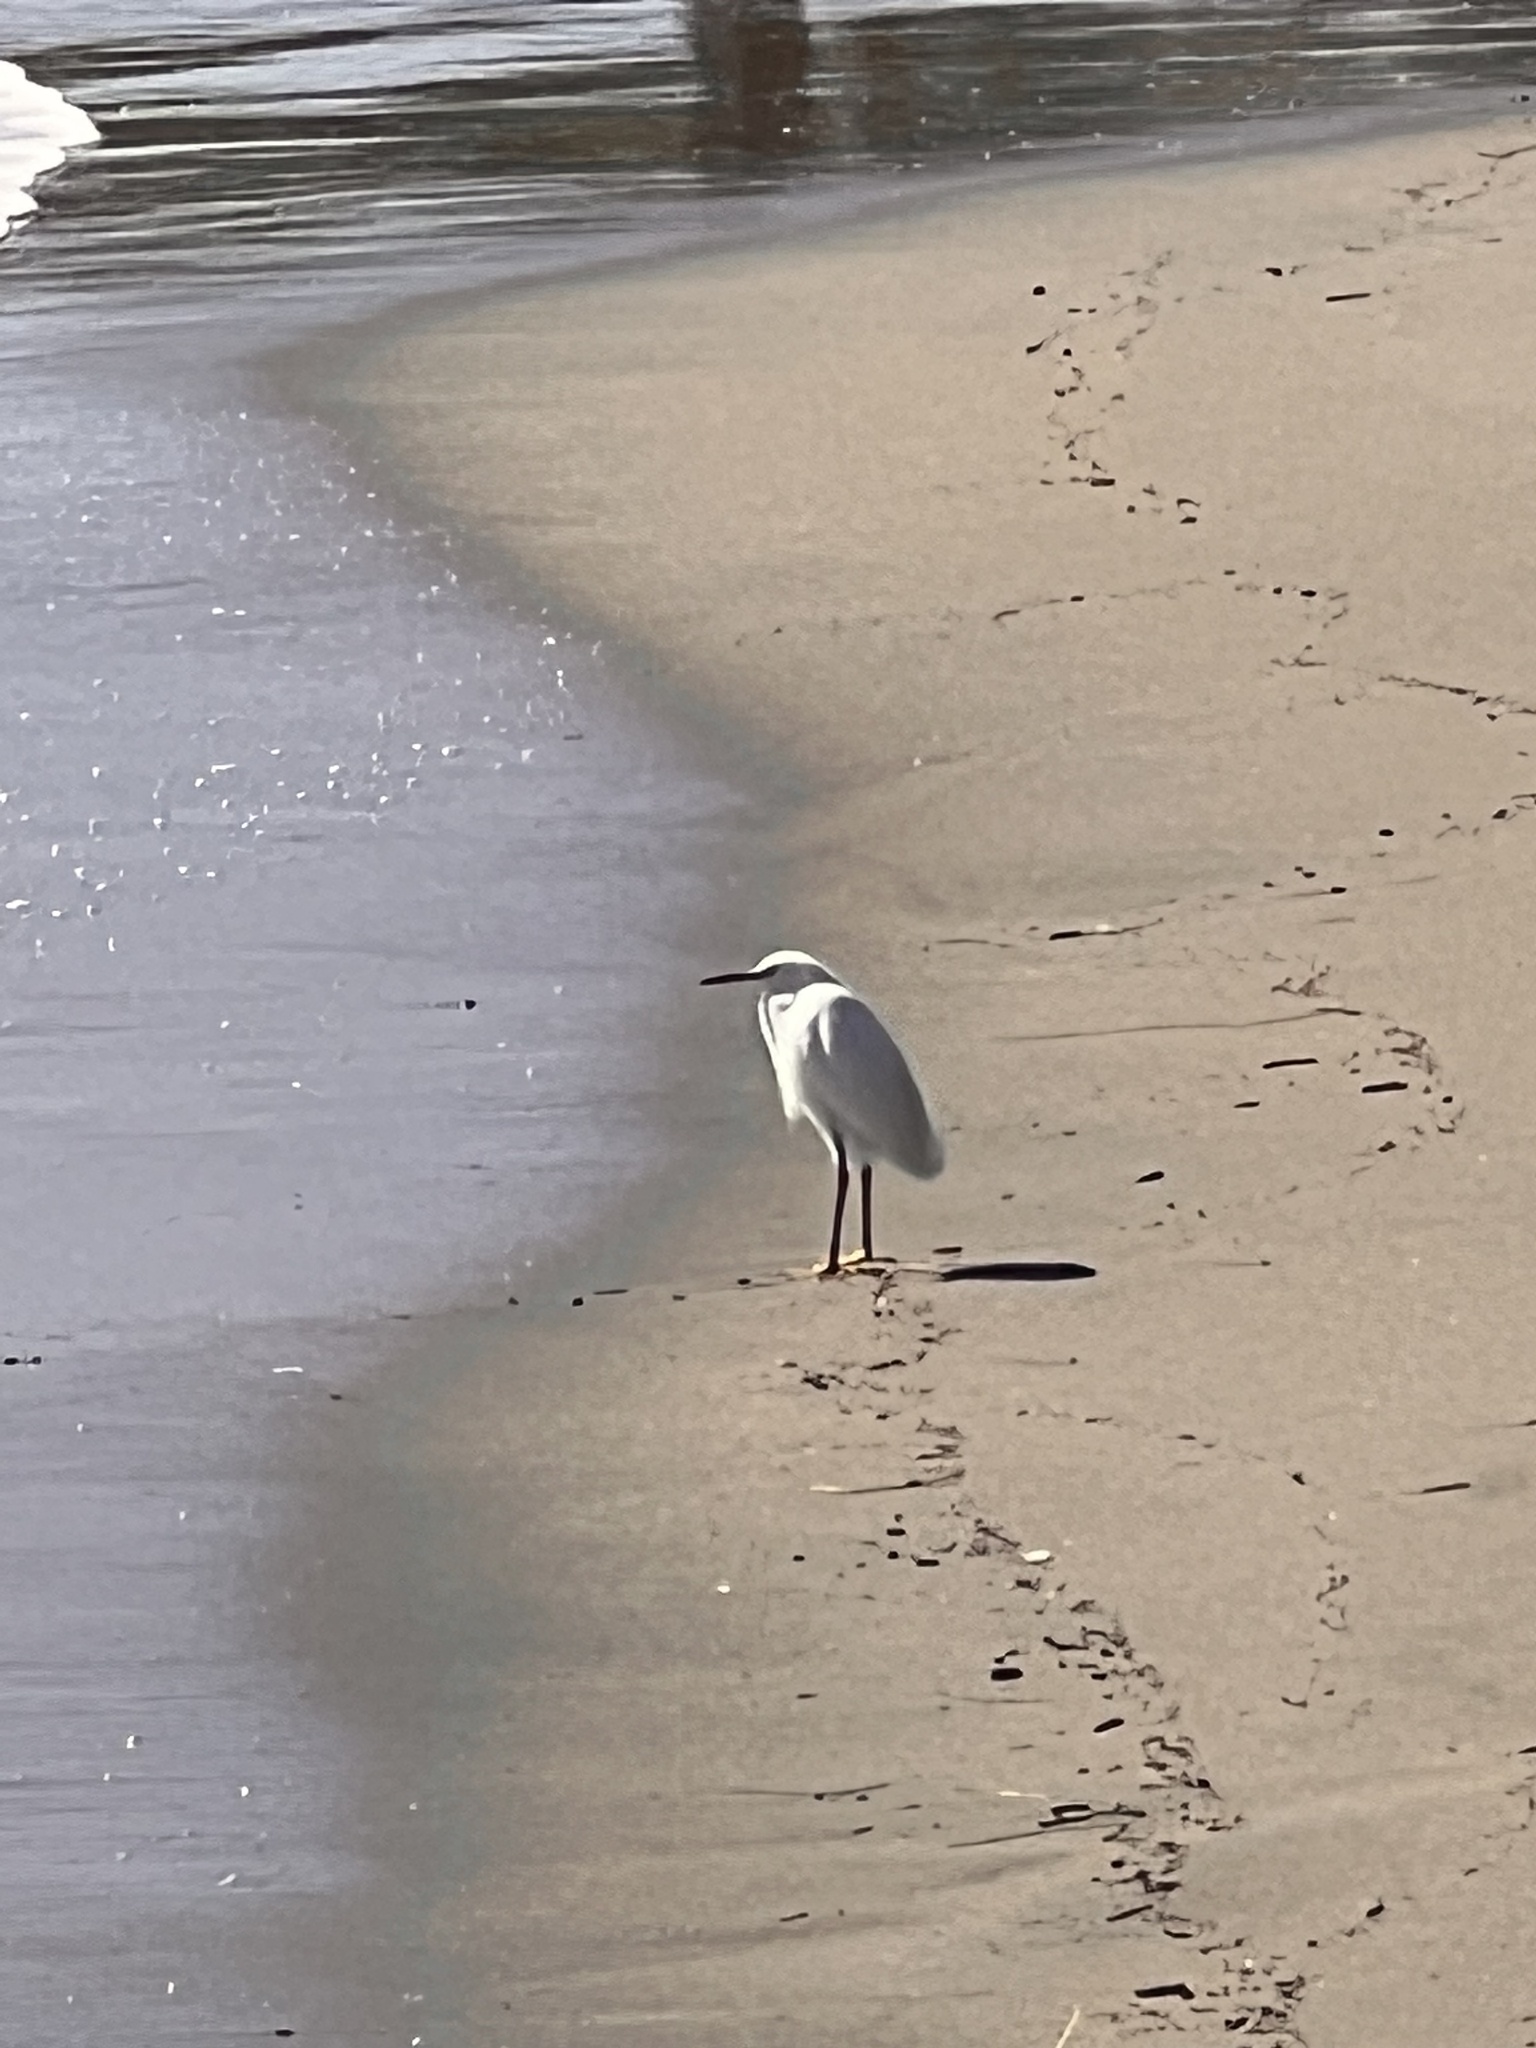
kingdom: Animalia
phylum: Chordata
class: Aves
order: Pelecaniformes
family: Ardeidae
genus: Egretta
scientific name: Egretta thula
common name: Snowy egret
